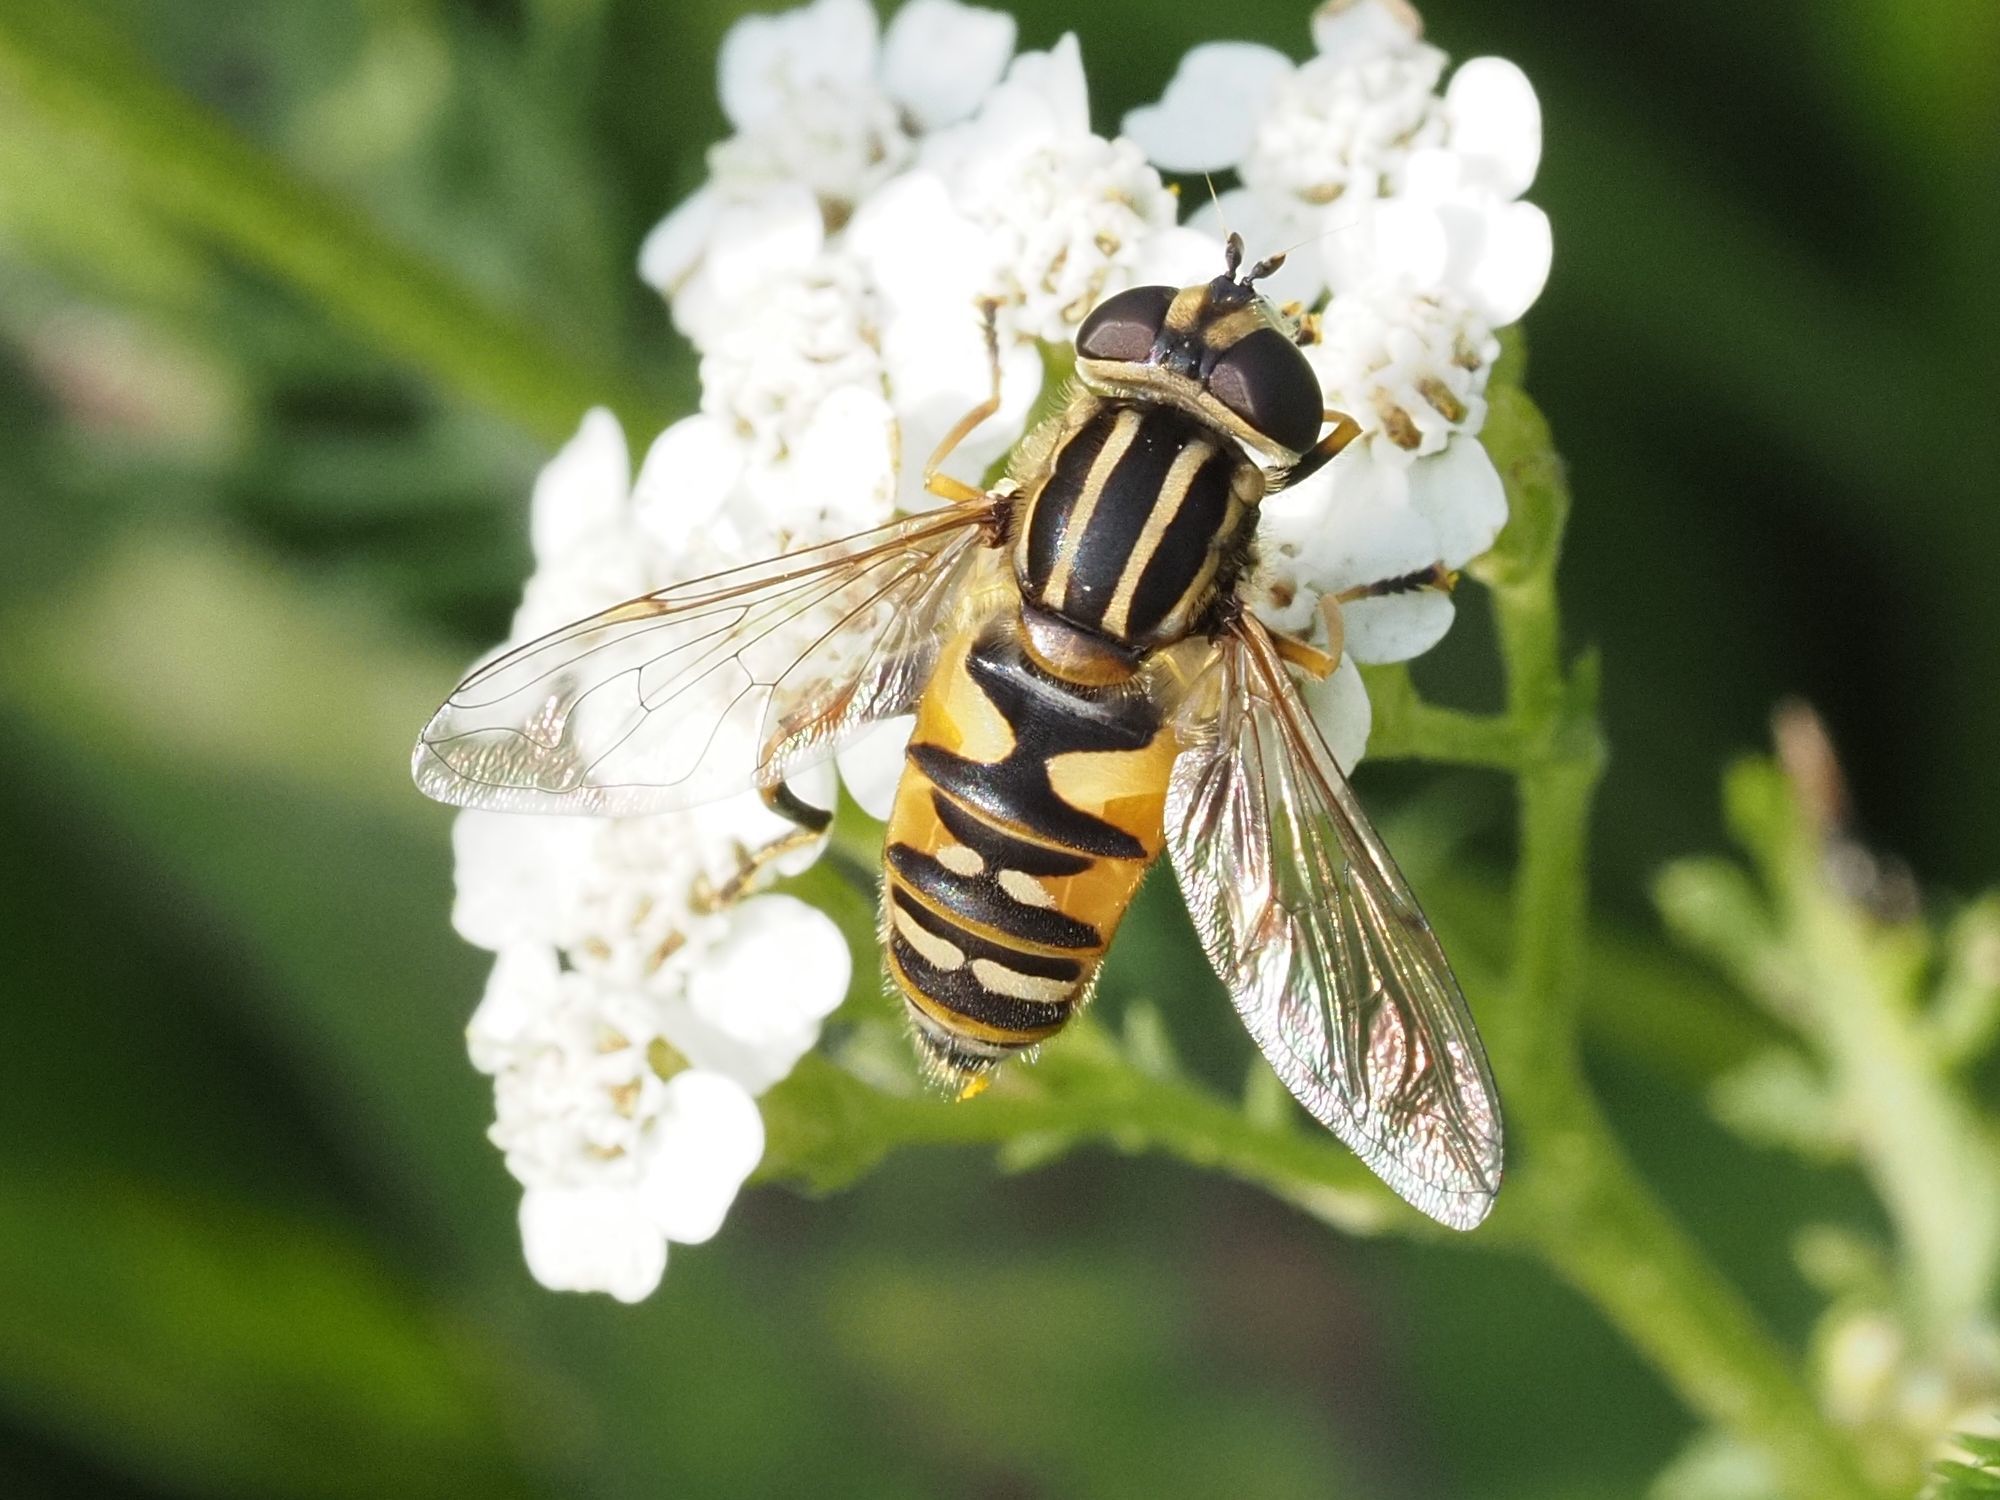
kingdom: Animalia
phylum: Arthropoda
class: Insecta
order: Diptera
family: Syrphidae
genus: Helophilus
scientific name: Helophilus pendulus
